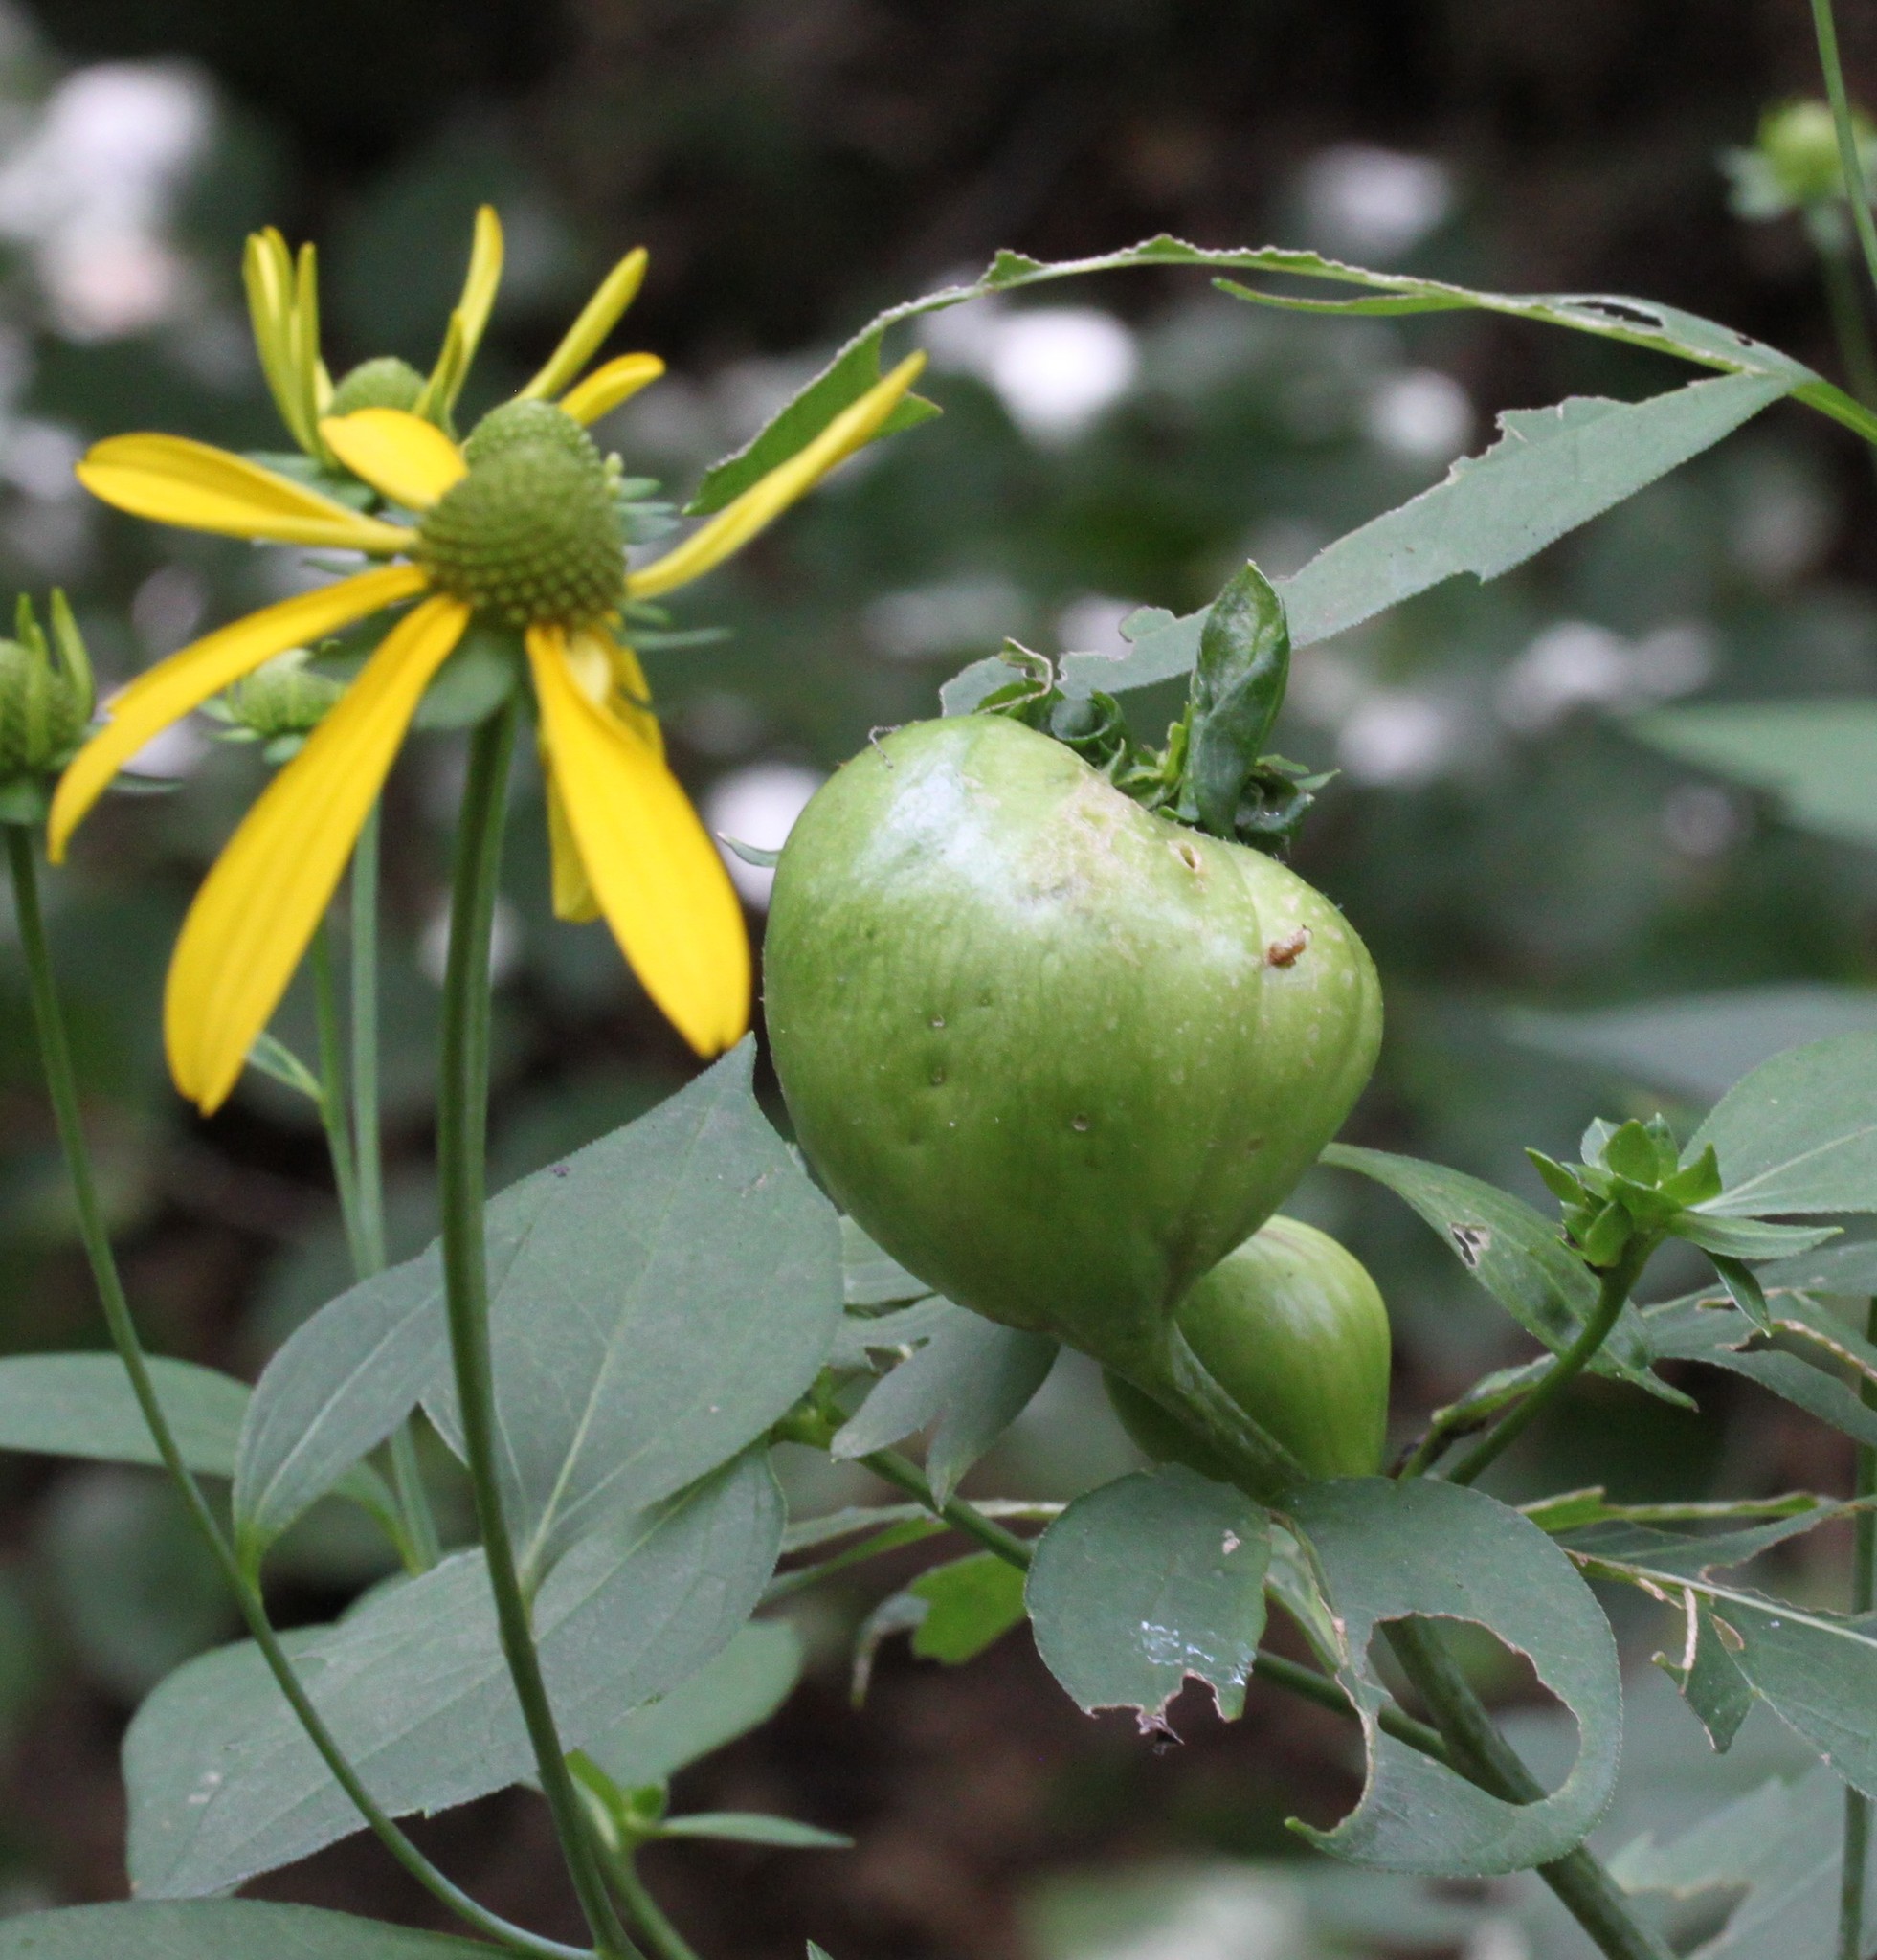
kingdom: Animalia
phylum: Arthropoda
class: Insecta
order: Diptera
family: Cecidomyiidae
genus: Asphondylia
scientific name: Asphondylia rudbeckiaeconspicua
